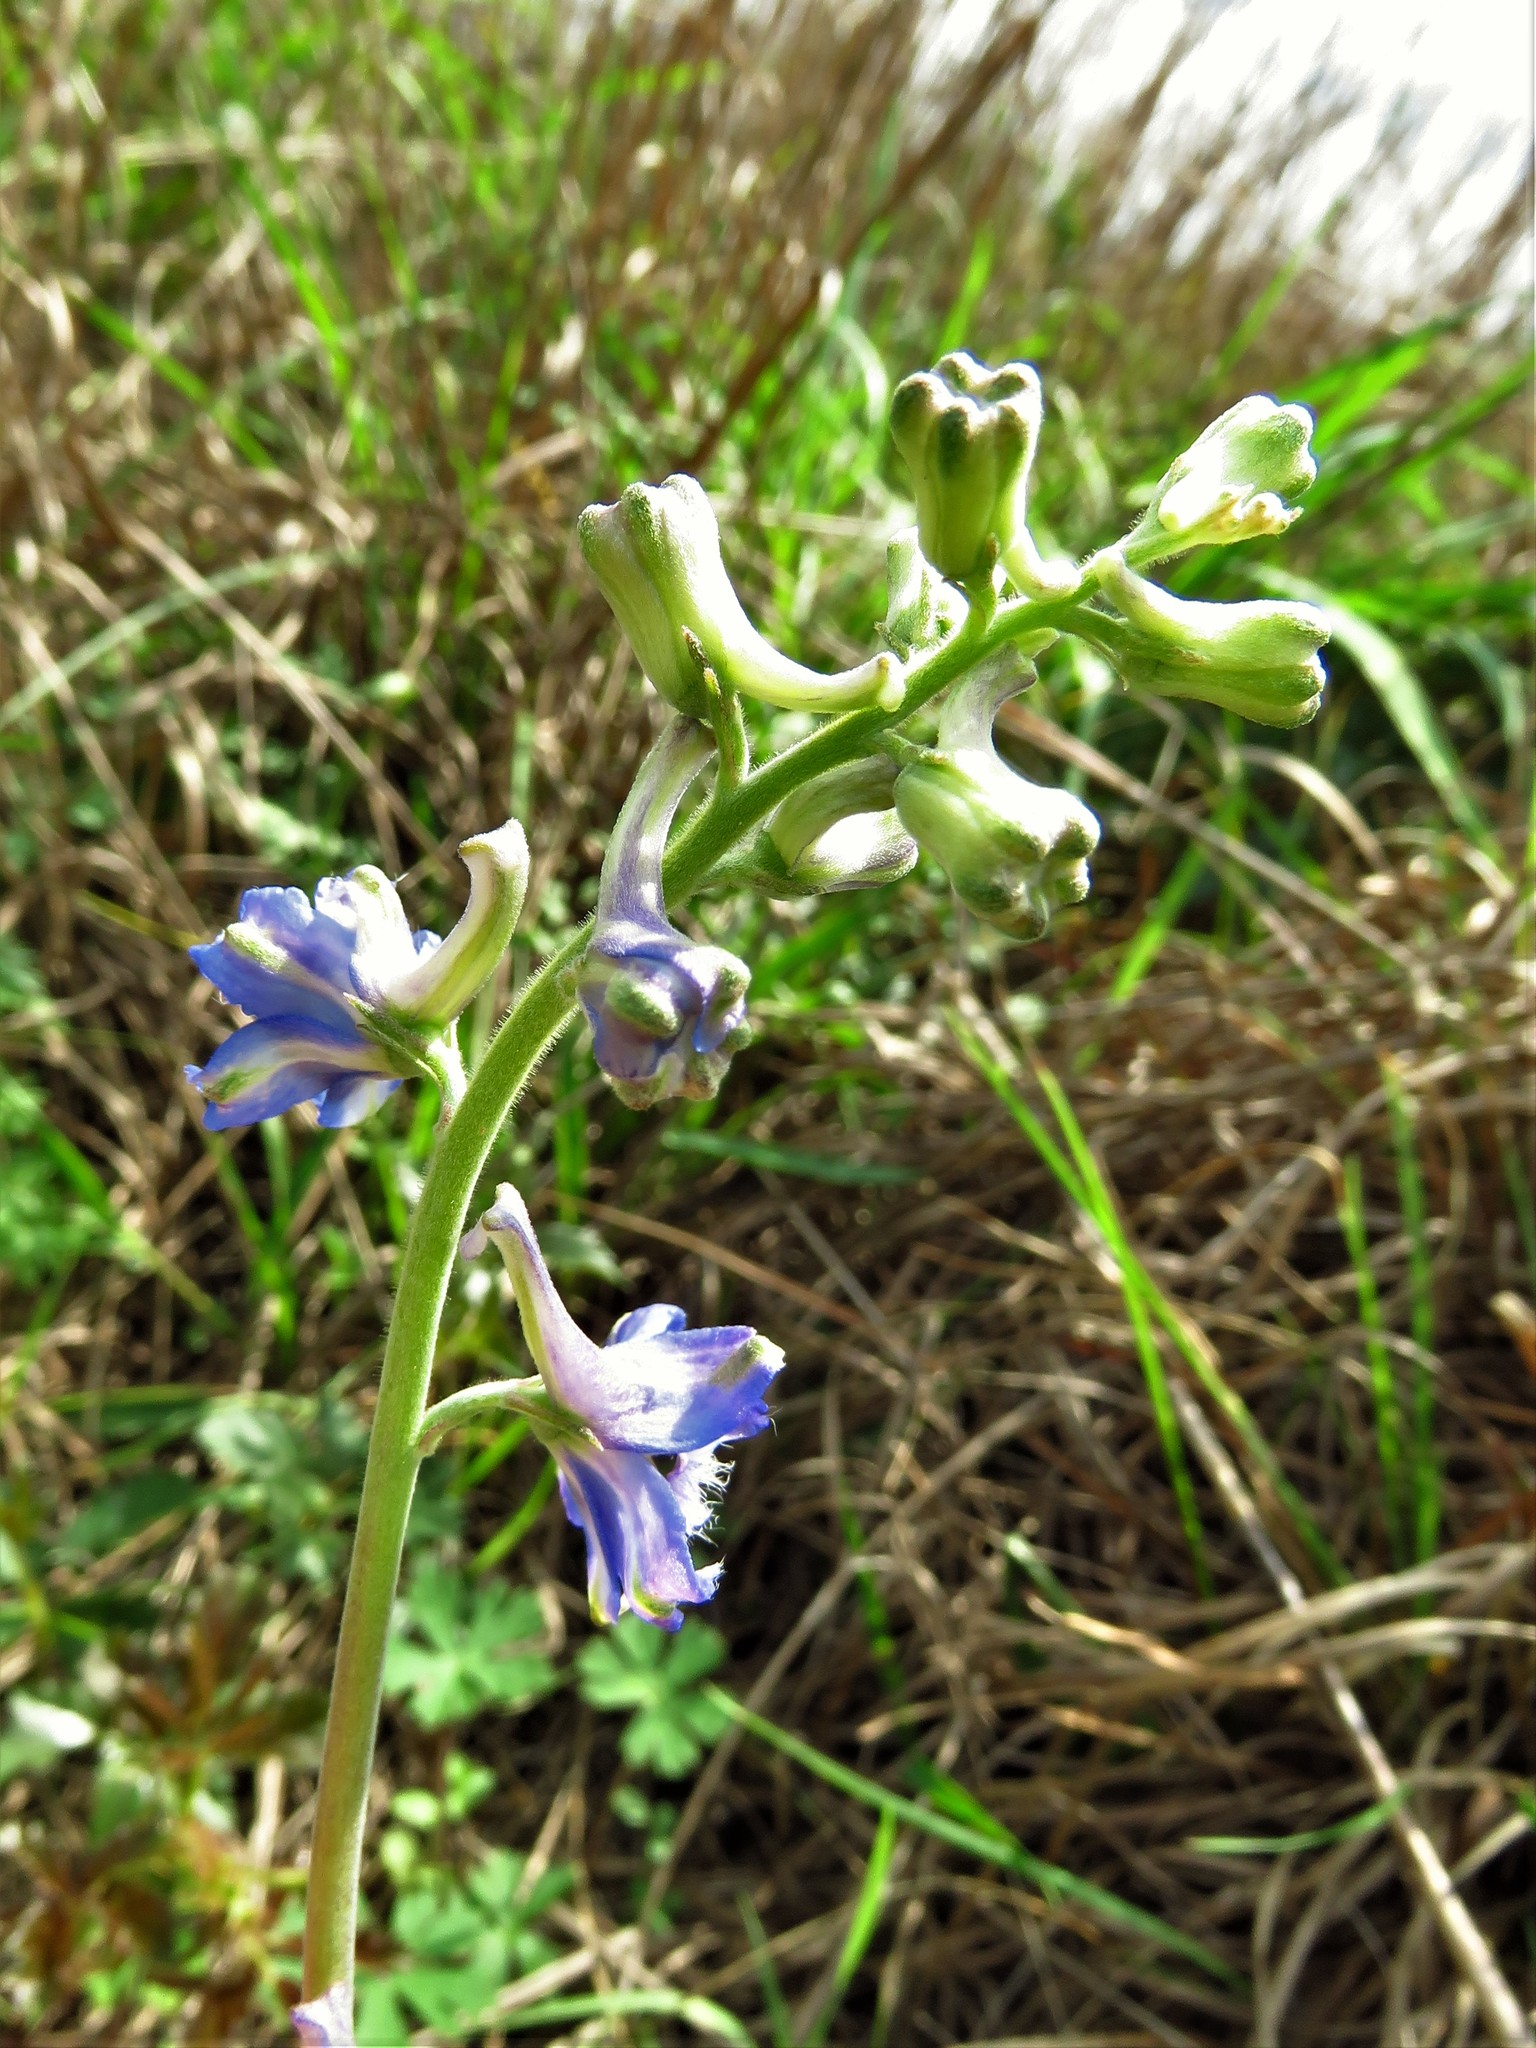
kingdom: Plantae
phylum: Tracheophyta
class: Magnoliopsida
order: Ranunculales
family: Ranunculaceae
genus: Delphinium
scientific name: Delphinium carolinianum
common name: Carolina larkspur
